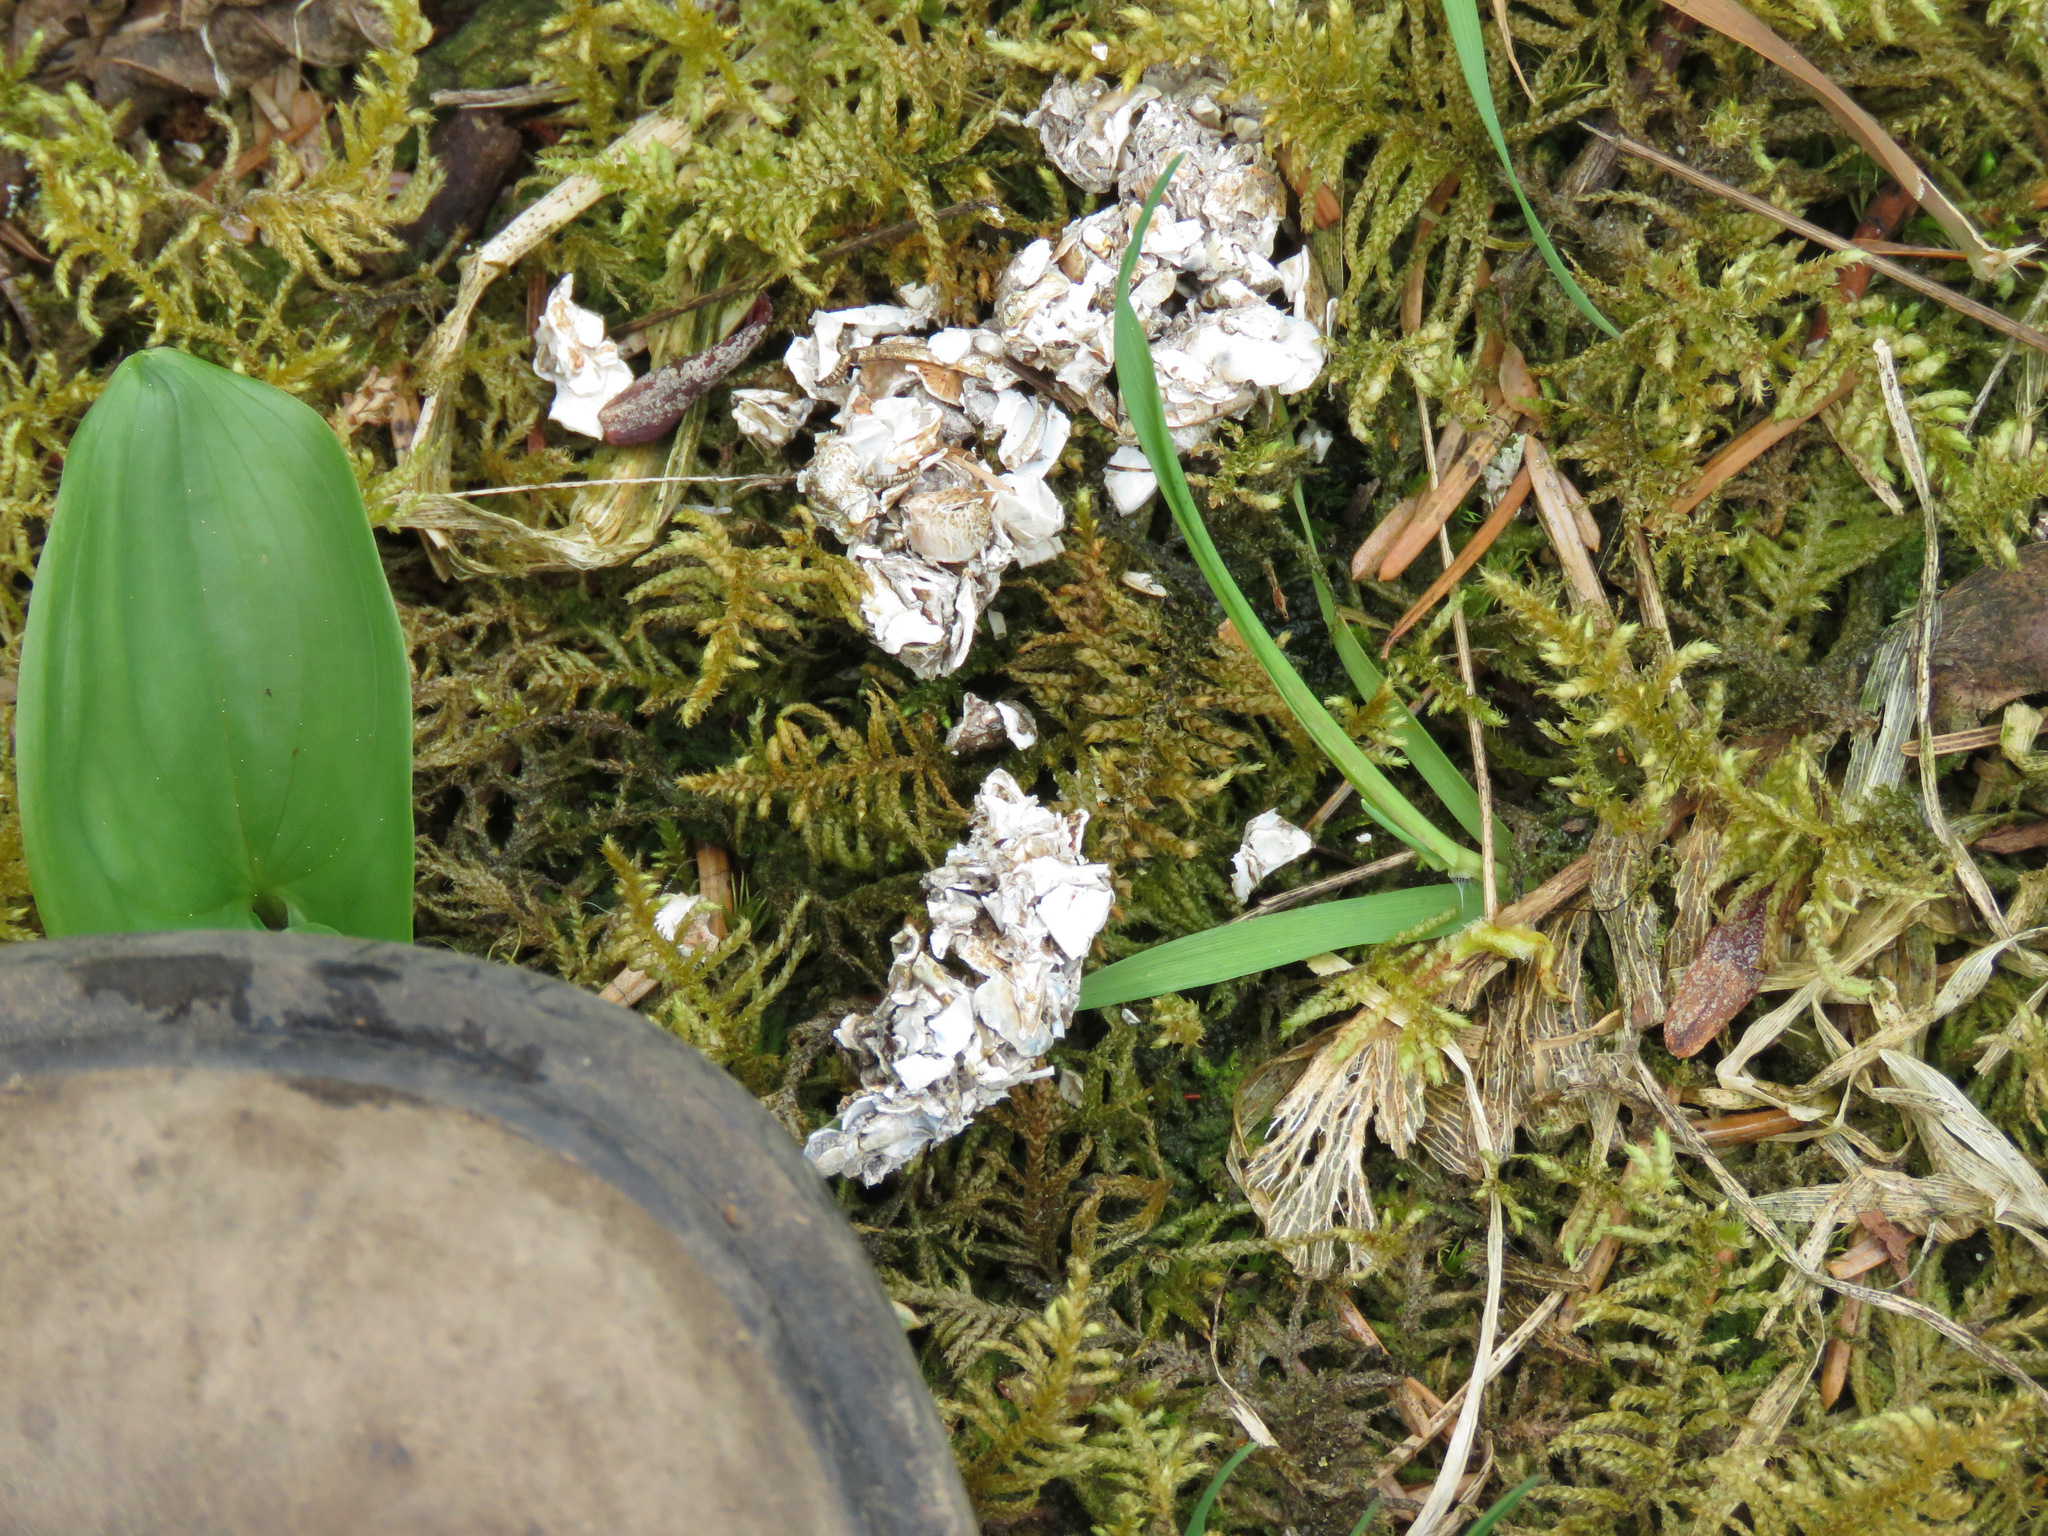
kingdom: Animalia
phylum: Chordata
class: Mammalia
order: Carnivora
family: Mustelidae
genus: Lontra
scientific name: Lontra canadensis
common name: North american river otter
